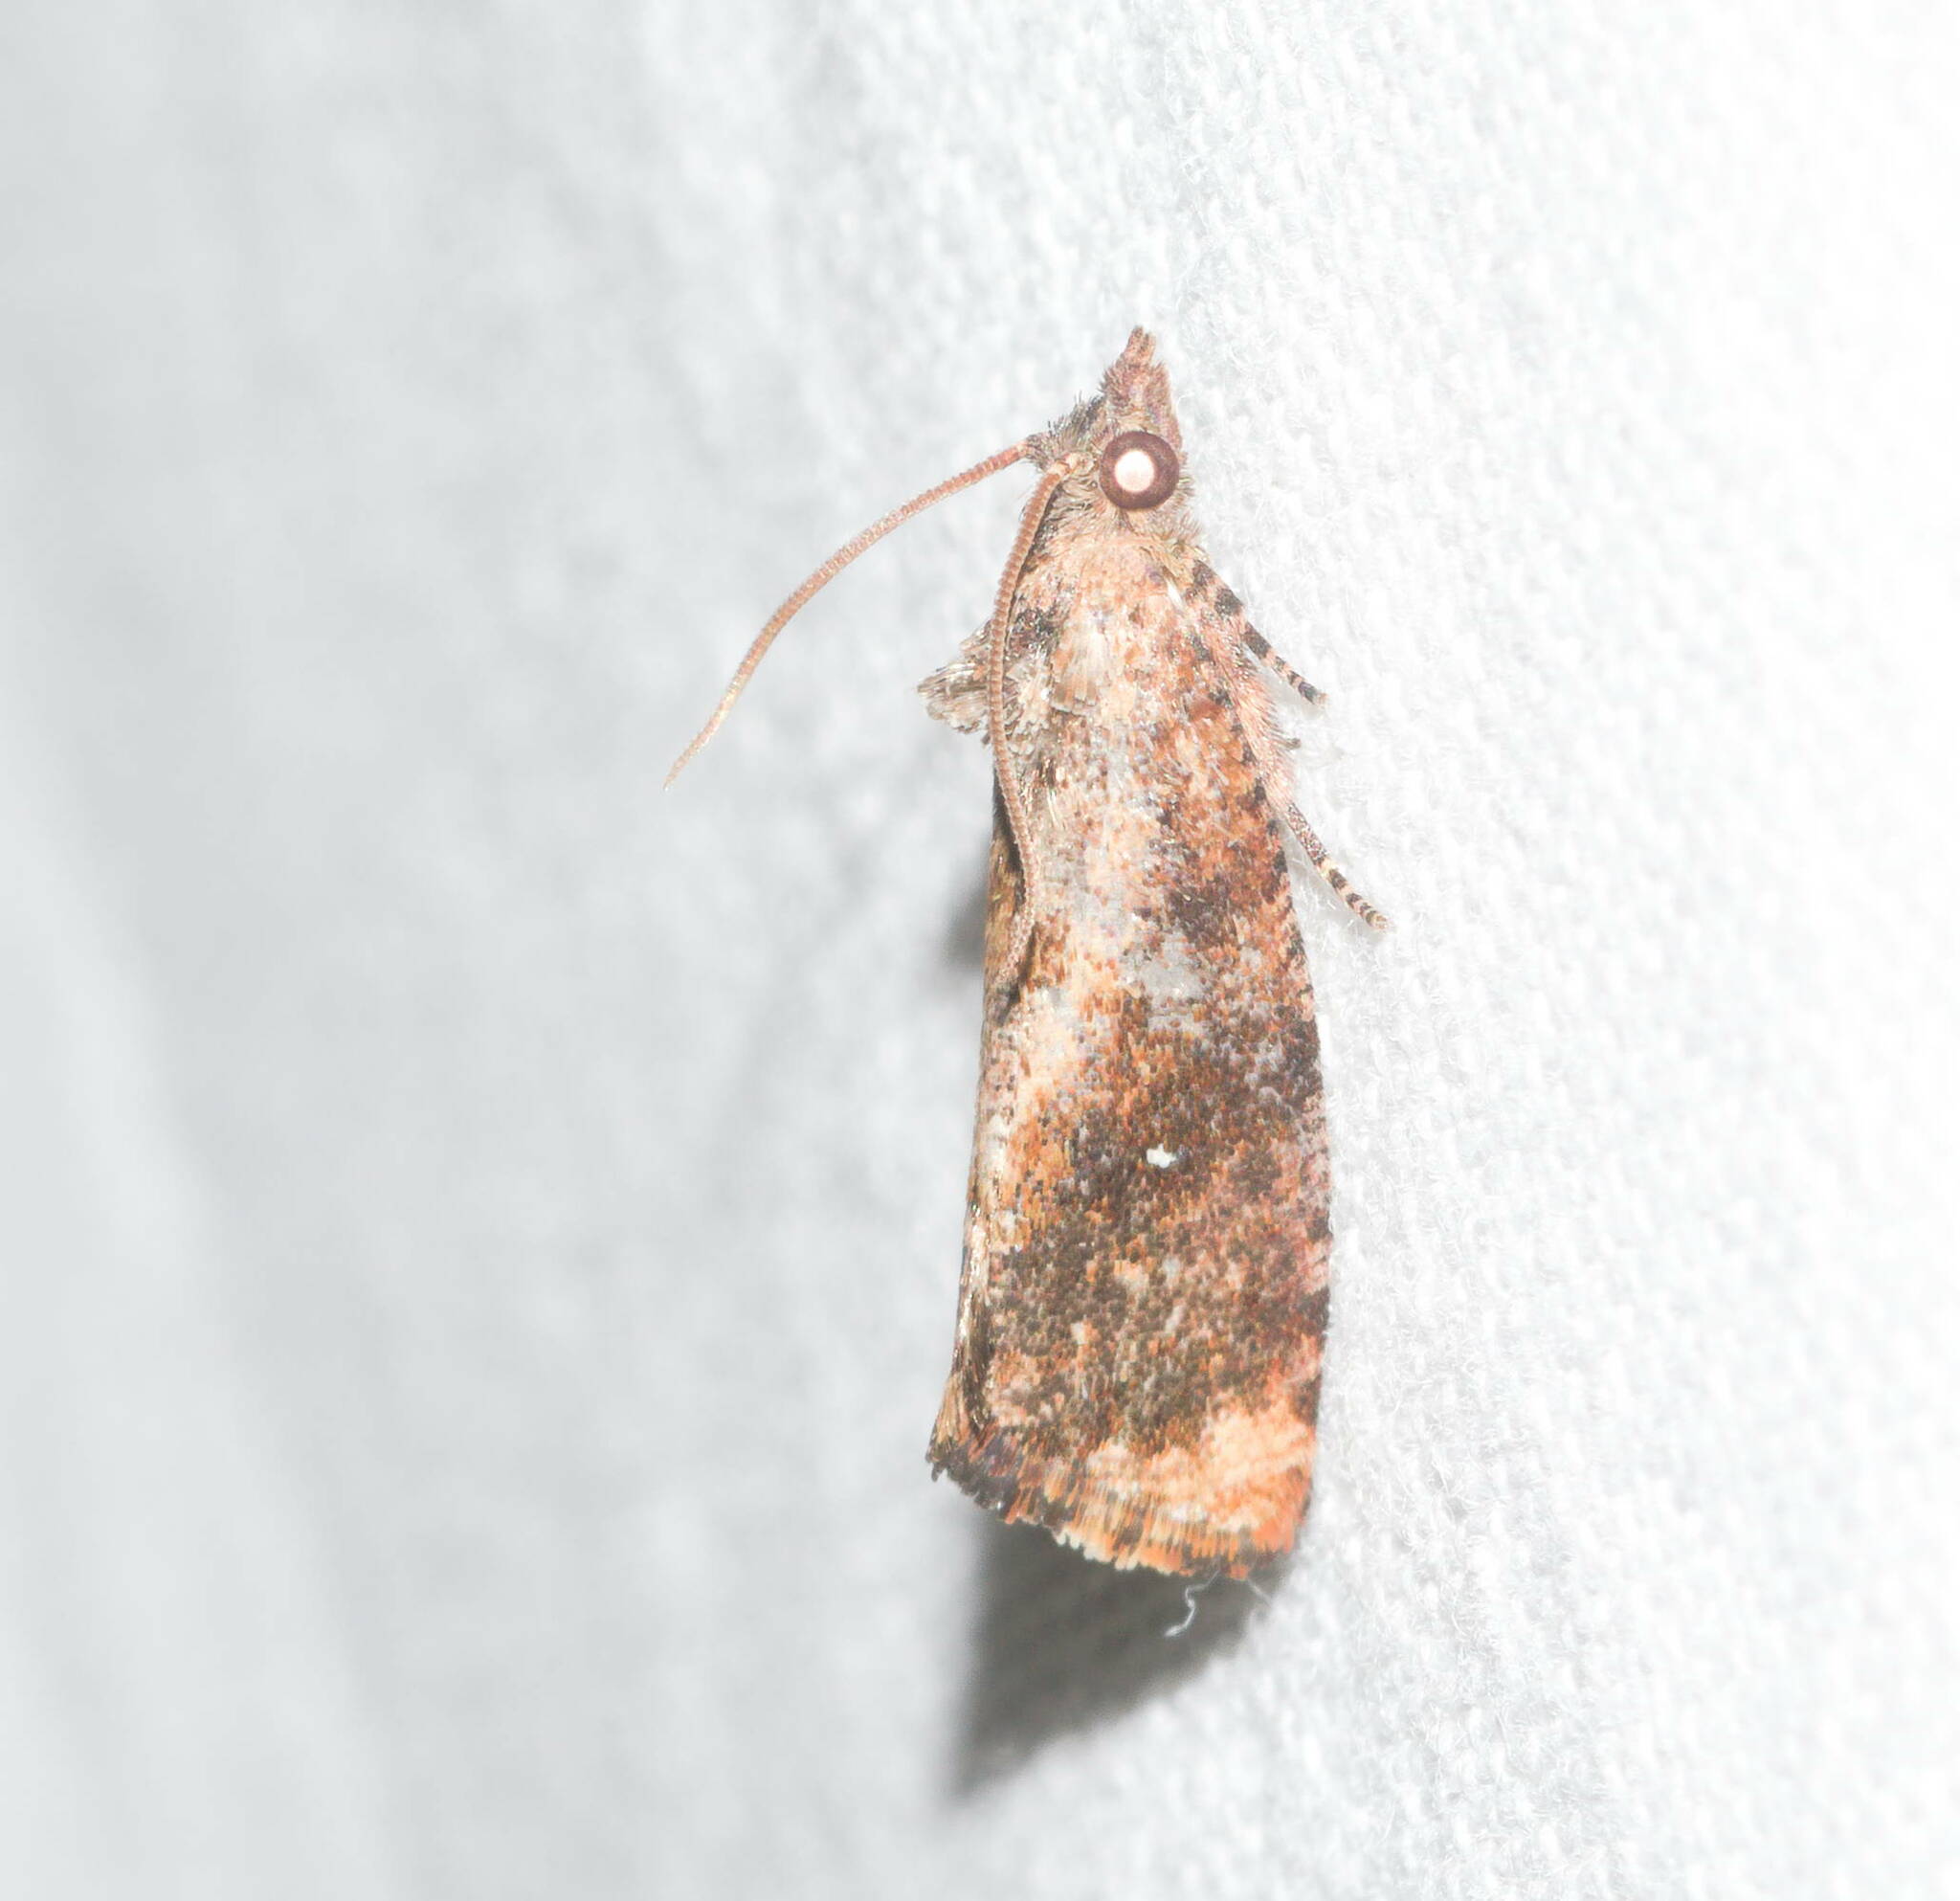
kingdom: Animalia
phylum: Arthropoda
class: Insecta
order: Lepidoptera
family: Tortricidae
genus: Cryptophlebia
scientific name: Cryptophlebia illepida
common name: Moth
